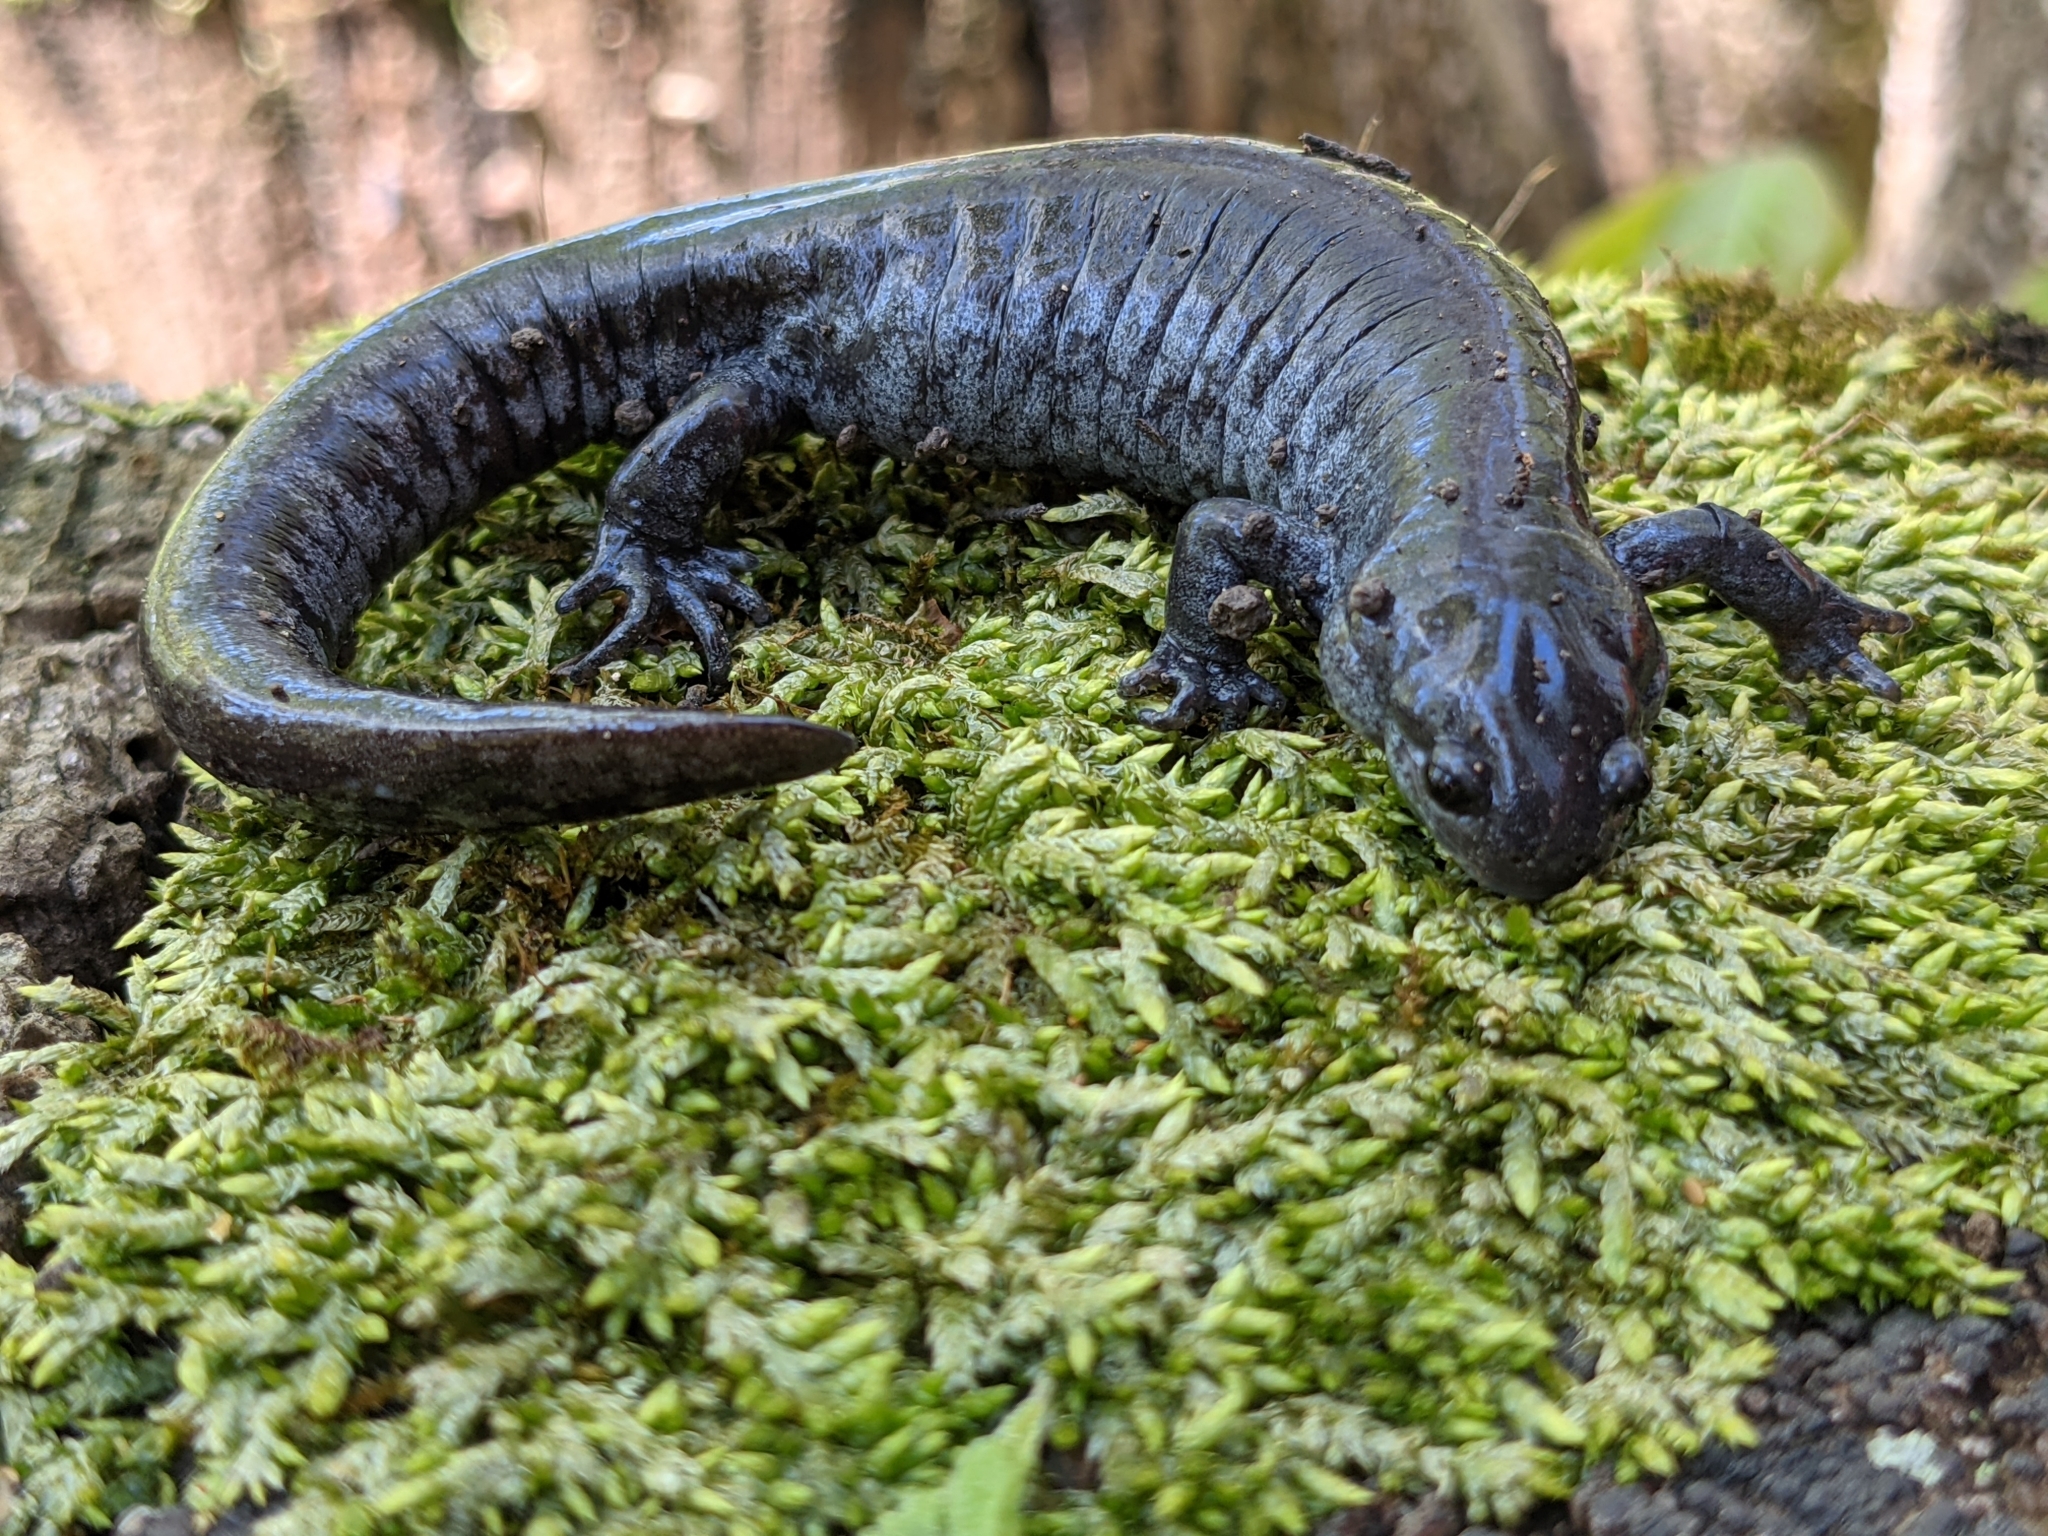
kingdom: Animalia
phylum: Chordata
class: Amphibia
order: Caudata
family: Ambystomatidae
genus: Ambystoma
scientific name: Ambystoma texanum
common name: Small-mouth salamander
